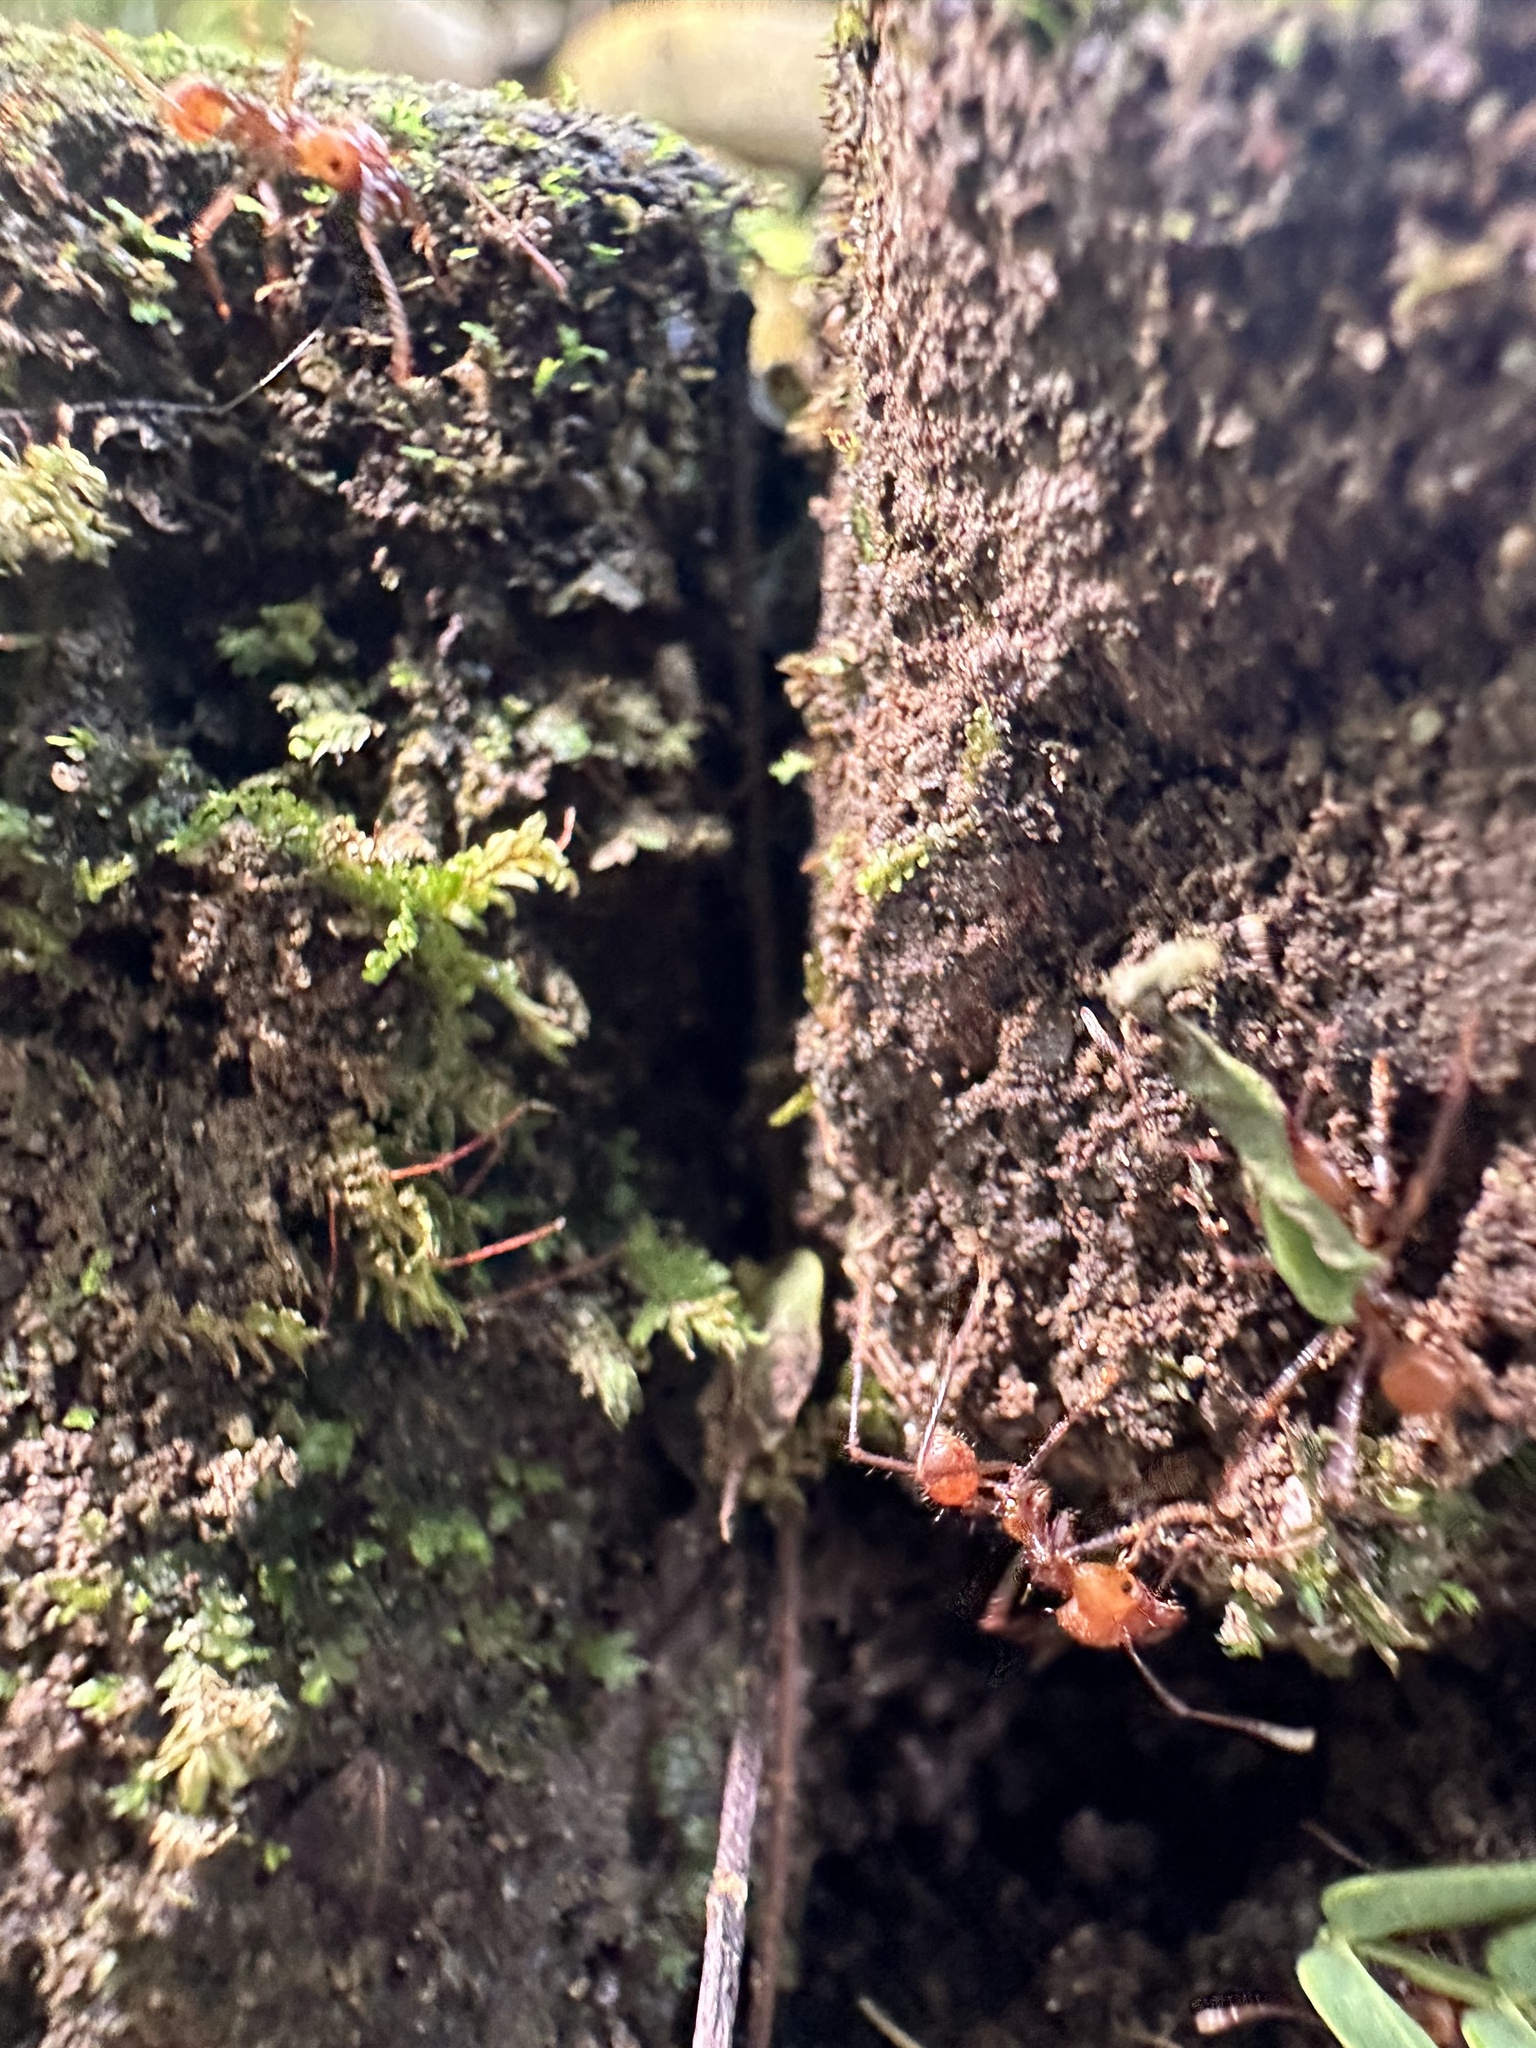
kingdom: Animalia
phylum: Arthropoda
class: Insecta
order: Hymenoptera
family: Formicidae
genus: Atta
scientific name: Atta cephalotes
